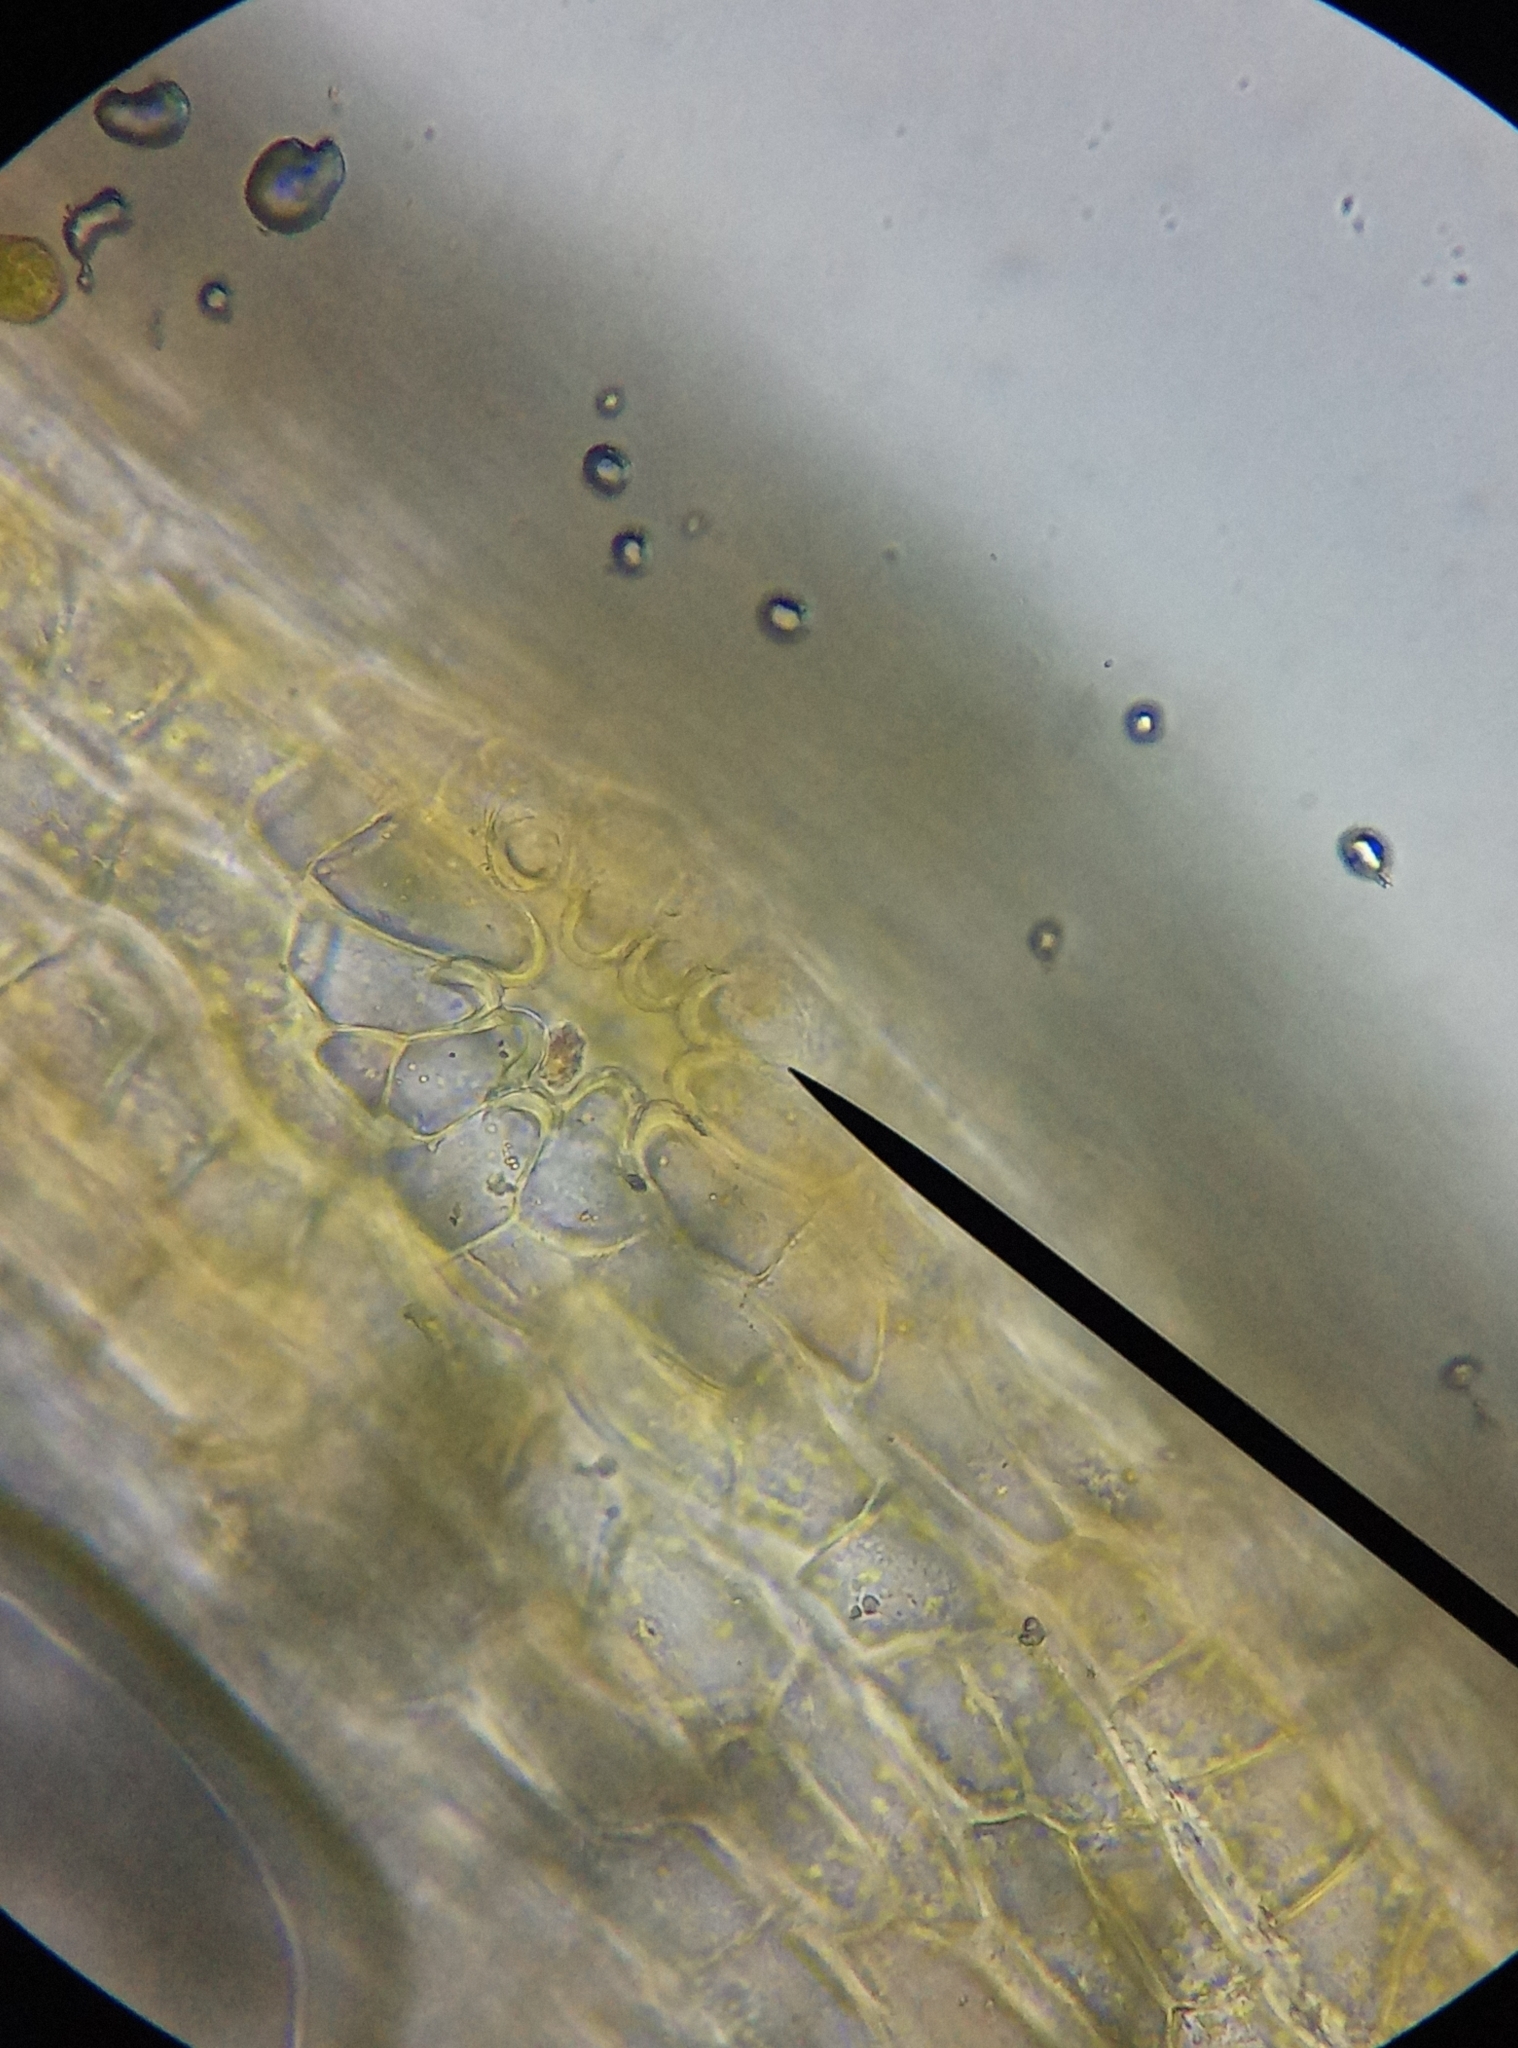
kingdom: Plantae
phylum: Bryophyta
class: Bryopsida
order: Orthotrichales
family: Orthotrichaceae
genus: Orthotrichum
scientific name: Orthotrichum pulchellum
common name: Elegant bristle-moss
